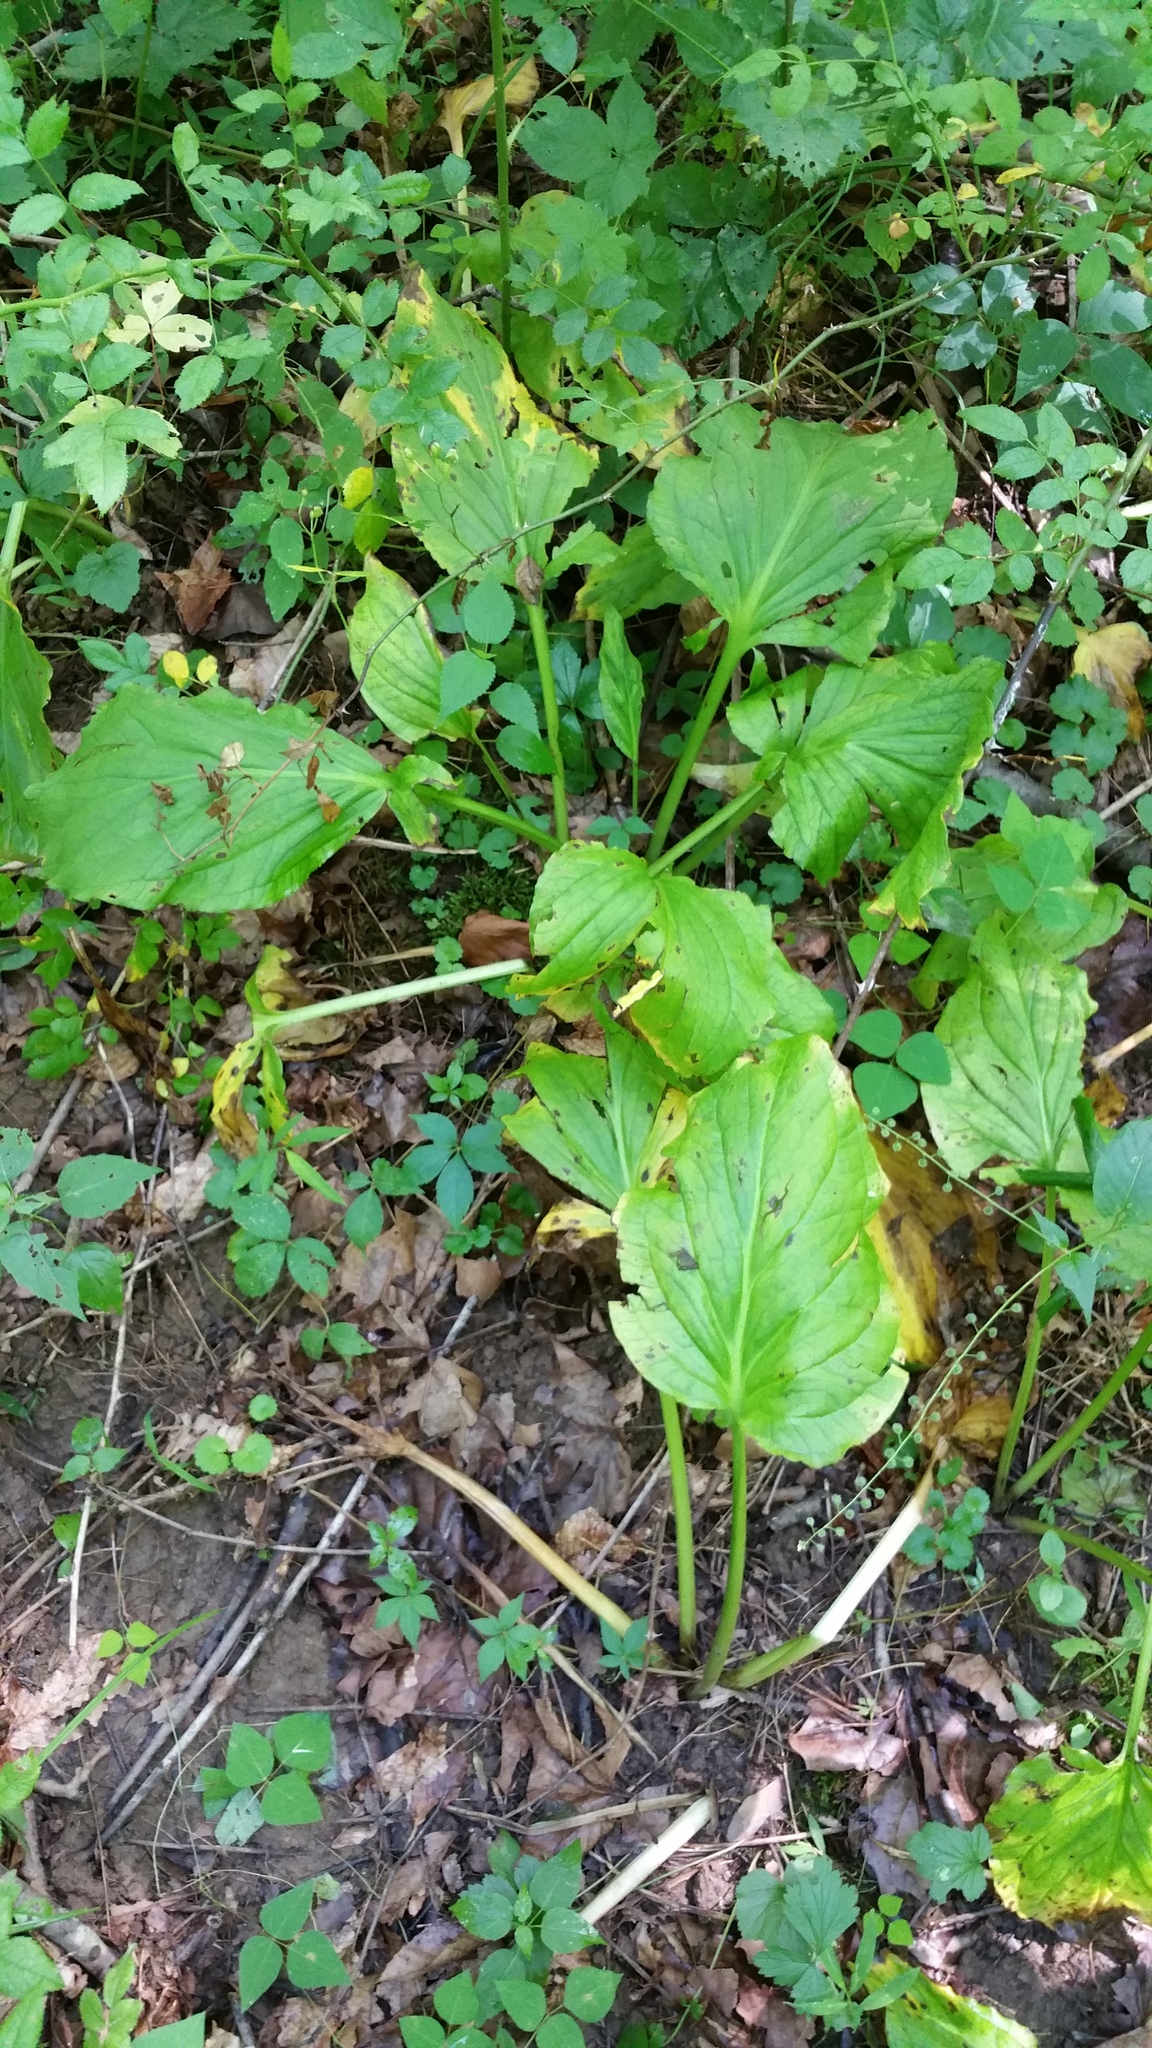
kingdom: Plantae
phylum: Tracheophyta
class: Liliopsida
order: Alismatales
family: Araceae
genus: Symplocarpus
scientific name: Symplocarpus foetidus
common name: Eastern skunk cabbage
